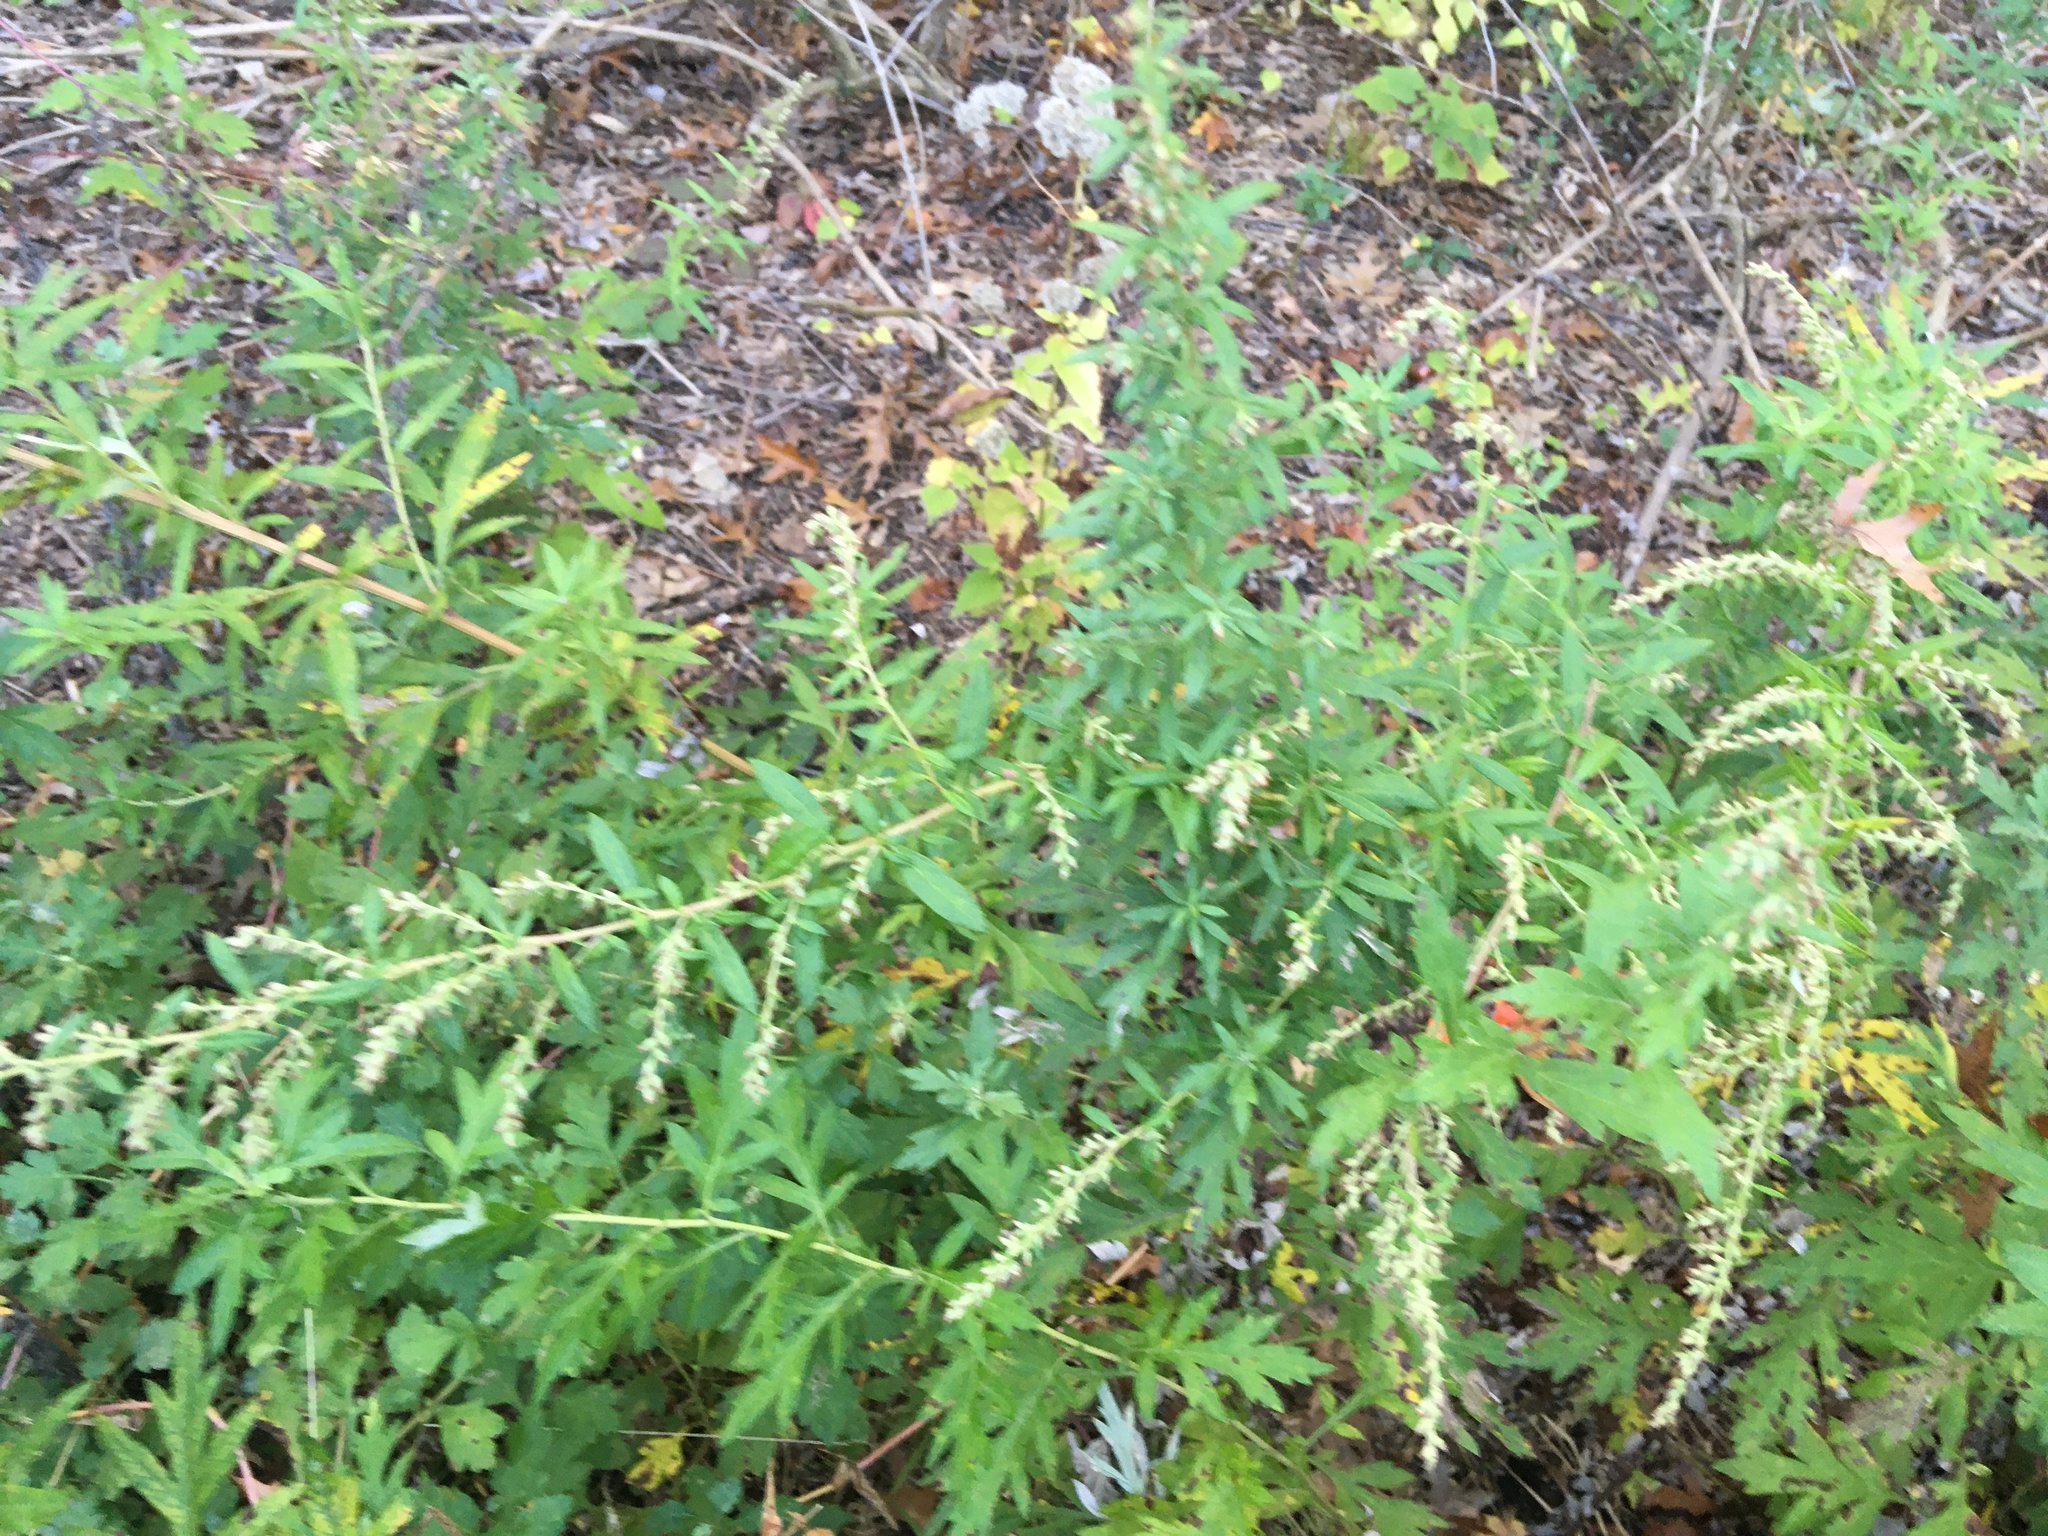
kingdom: Plantae
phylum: Tracheophyta
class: Magnoliopsida
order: Asterales
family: Asteraceae
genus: Artemisia
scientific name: Artemisia vulgaris
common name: Mugwort
